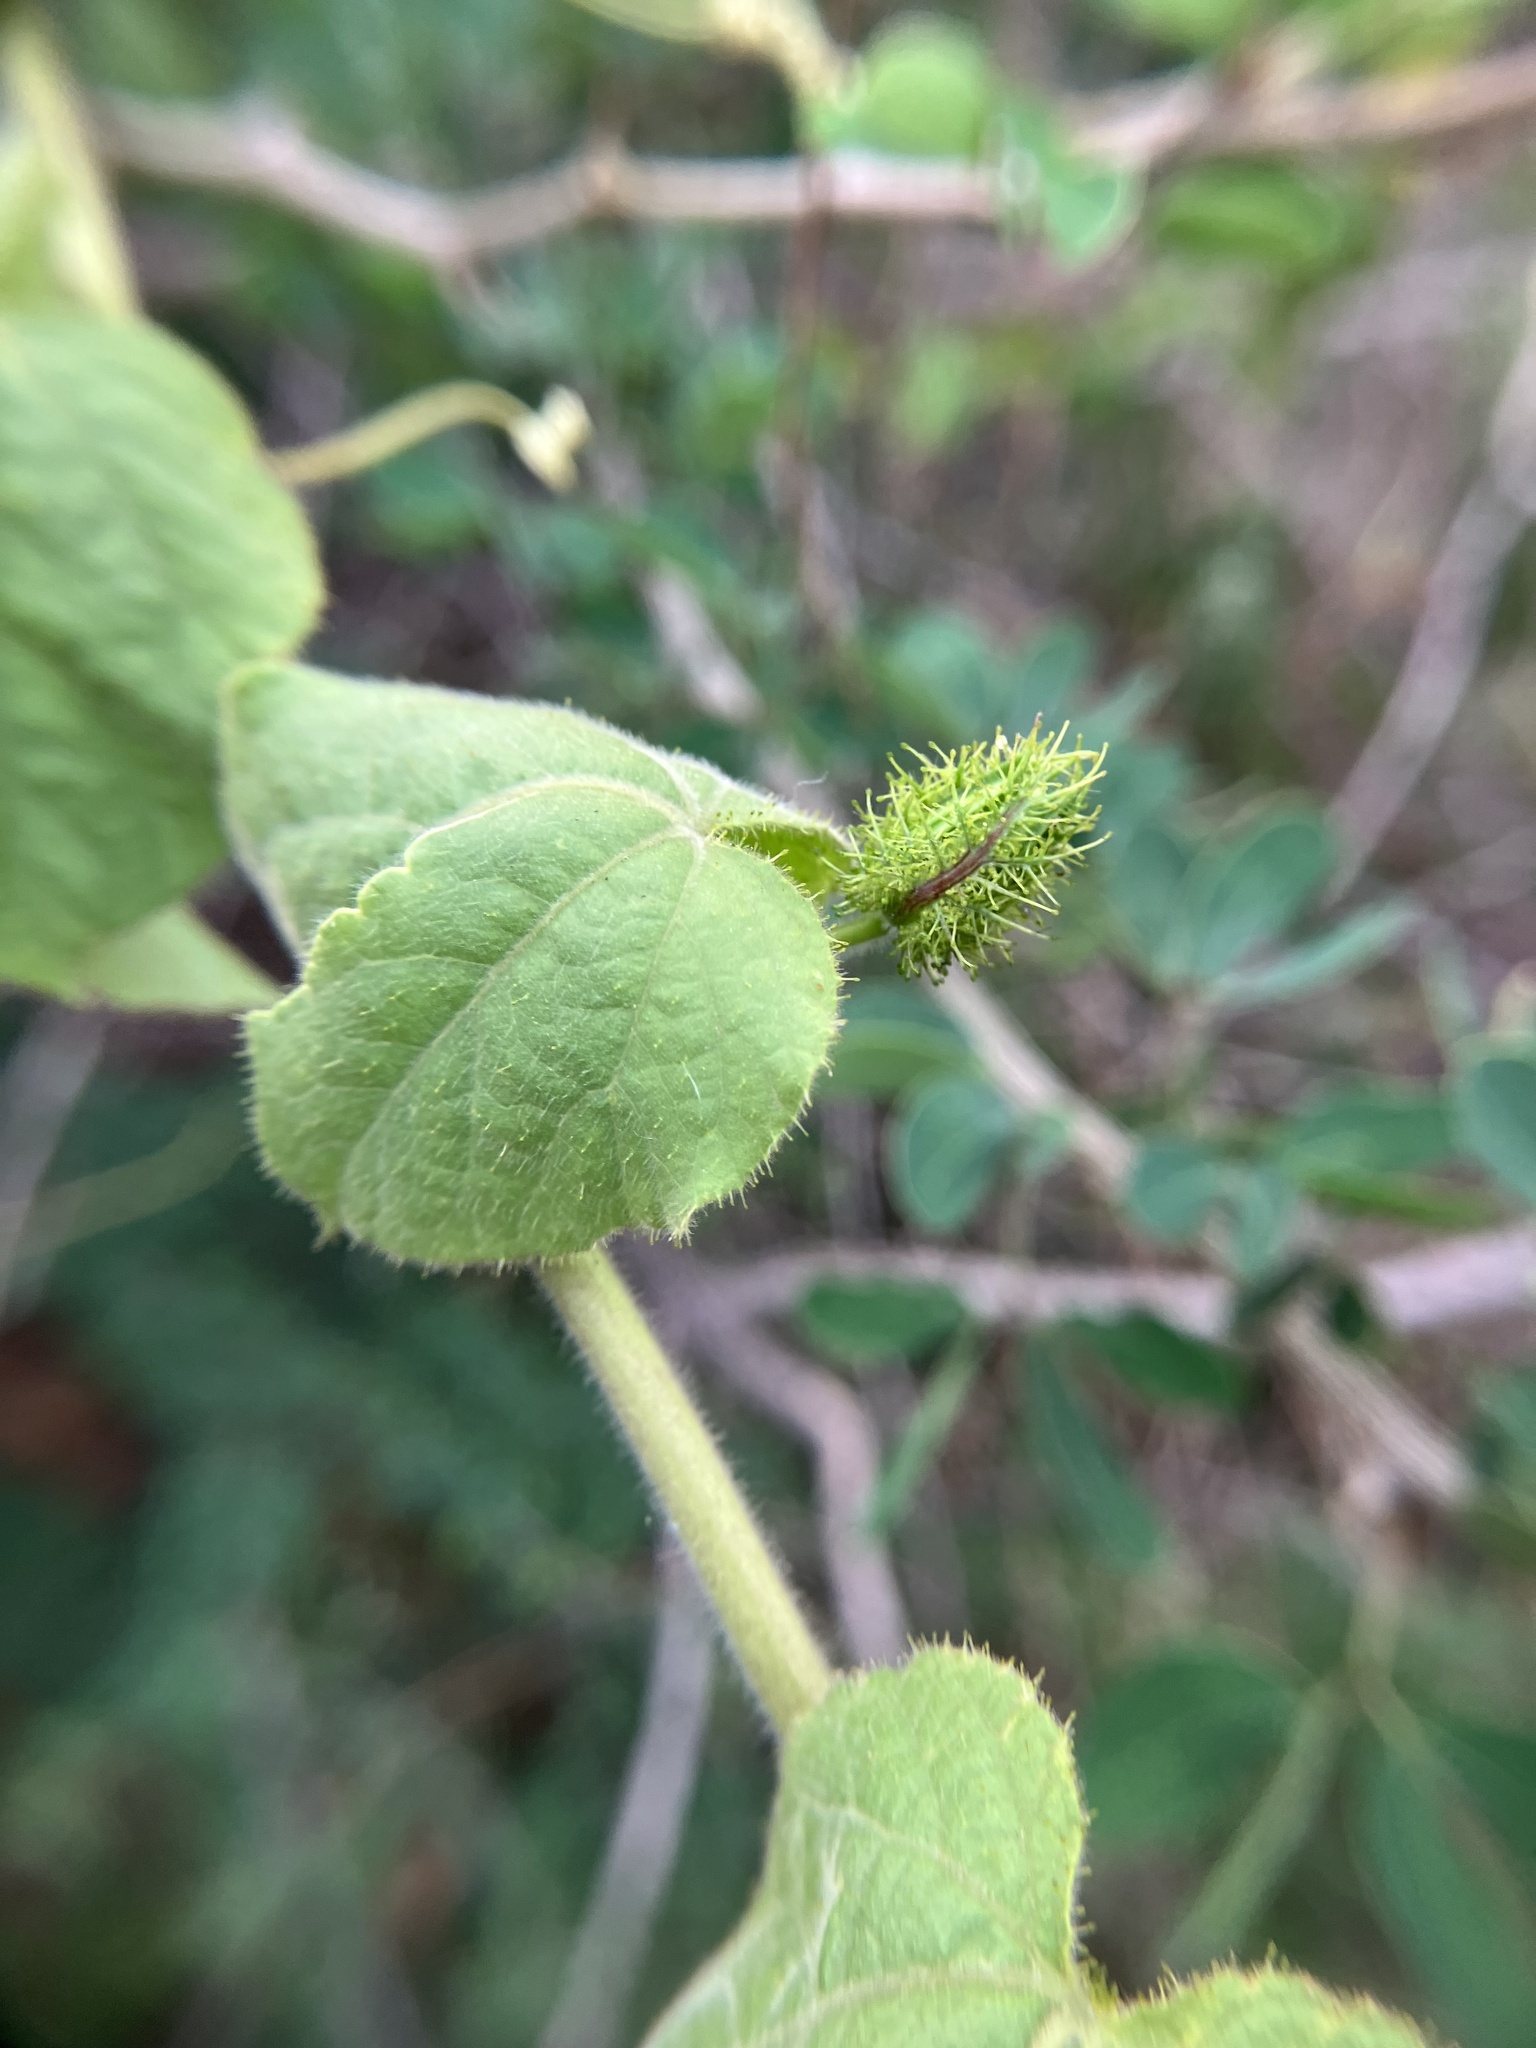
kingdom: Plantae
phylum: Tracheophyta
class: Magnoliopsida
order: Malpighiales
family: Passifloraceae
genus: Passiflora
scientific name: Passiflora vesicaria
